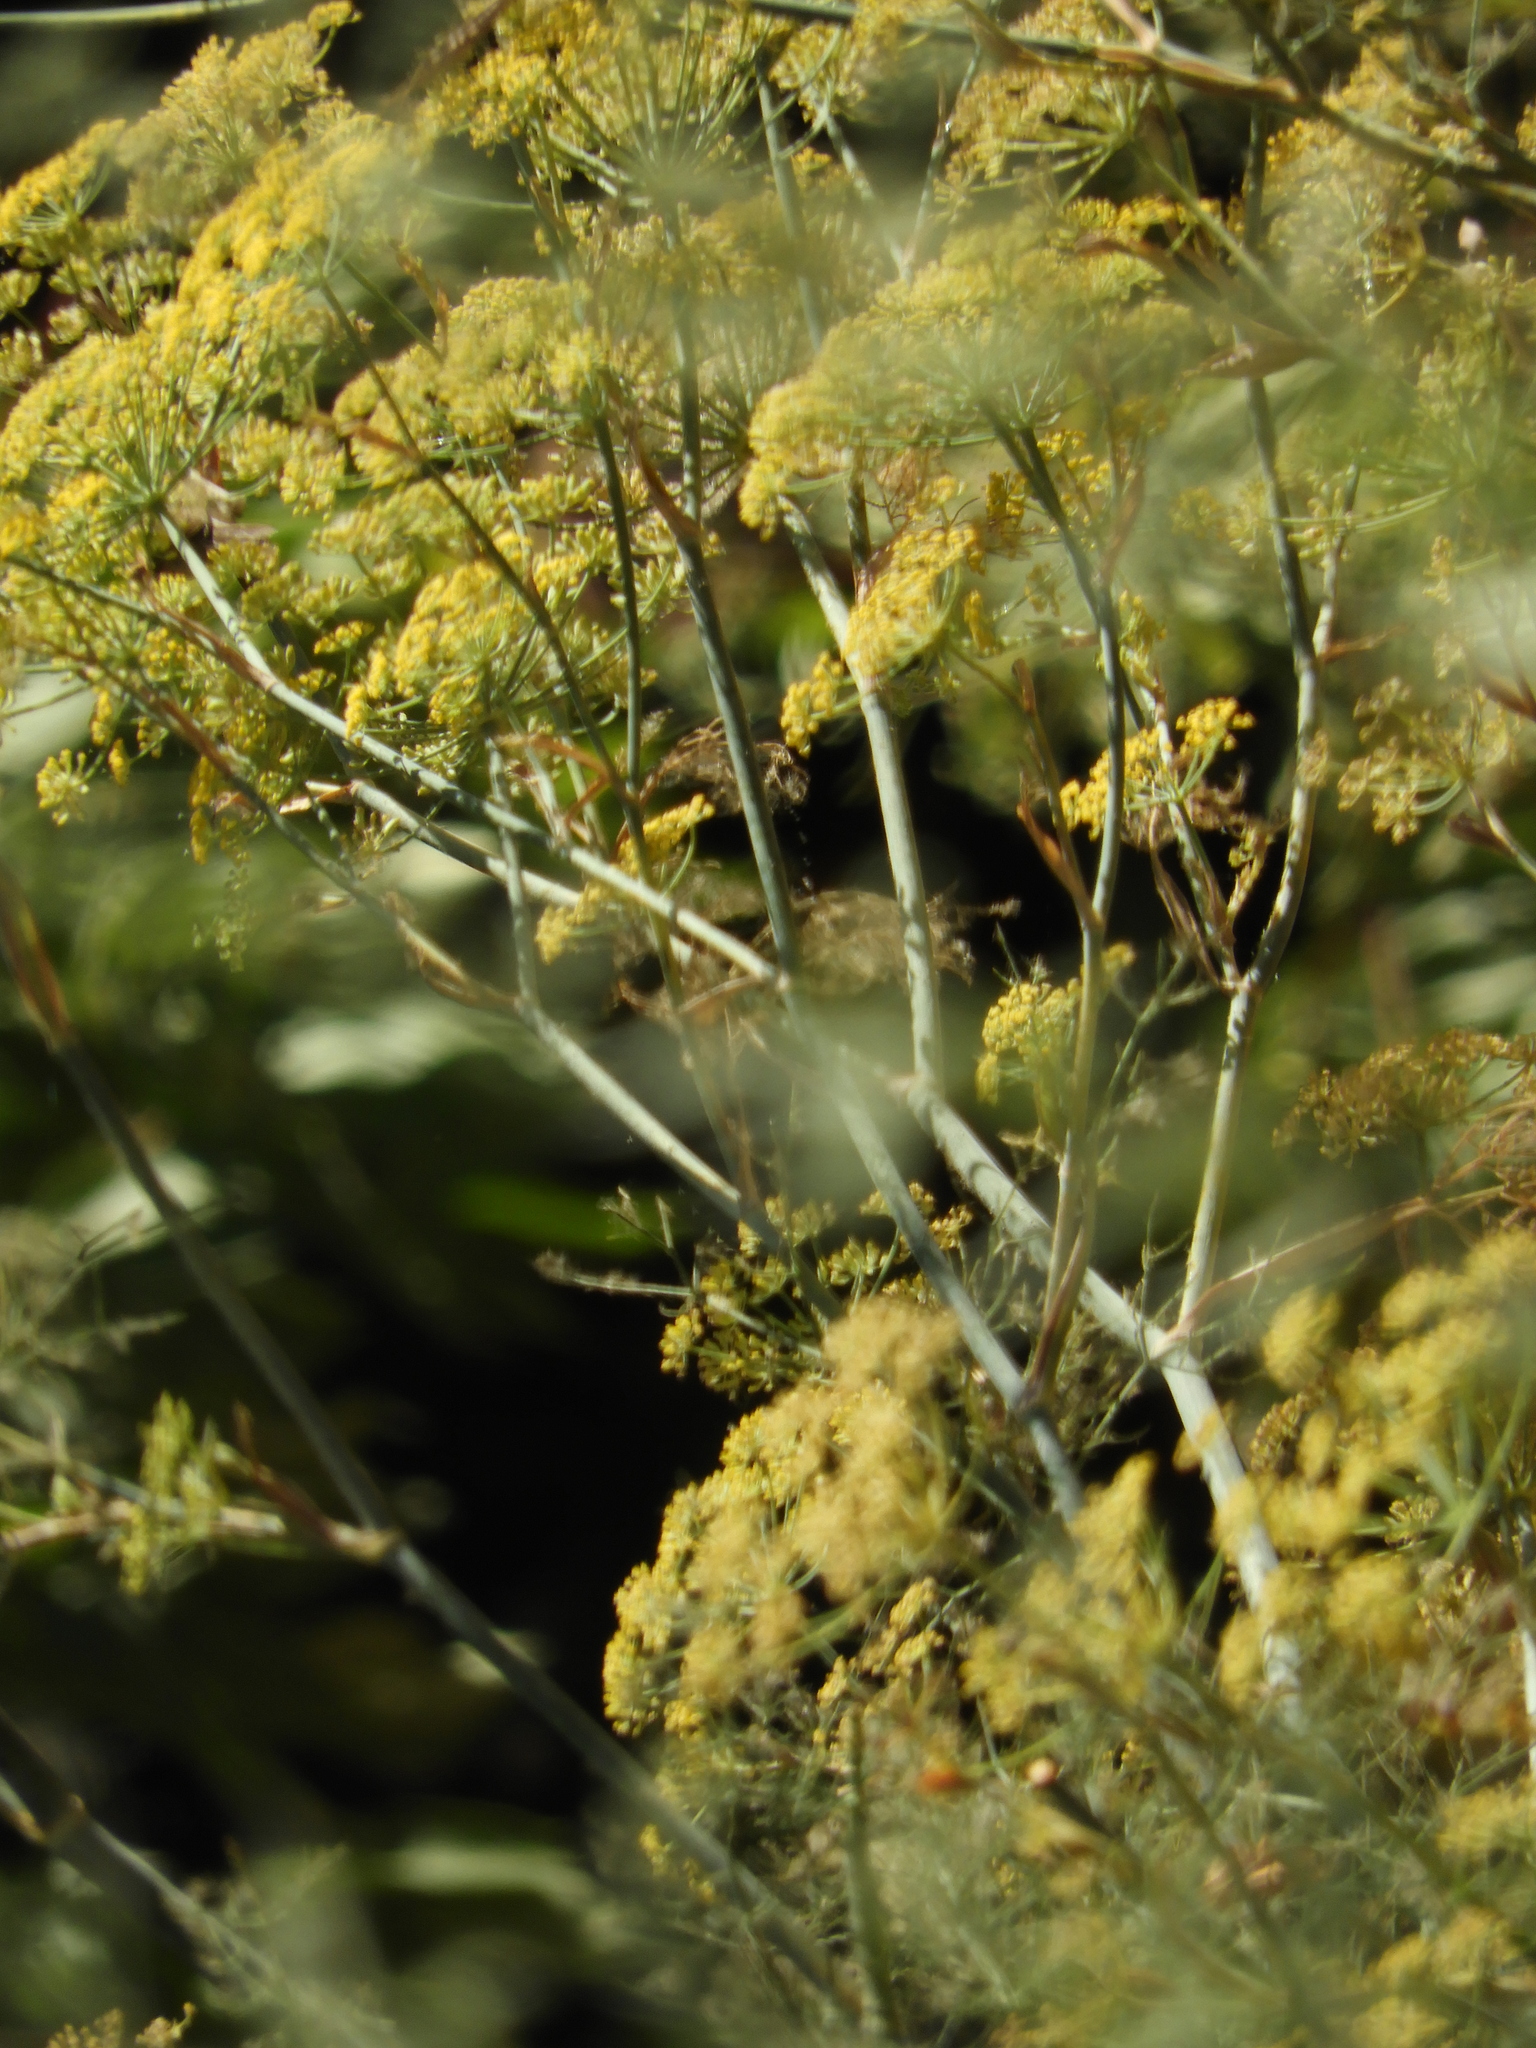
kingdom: Plantae
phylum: Tracheophyta
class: Magnoliopsida
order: Apiales
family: Apiaceae
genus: Foeniculum
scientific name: Foeniculum vulgare
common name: Fennel
